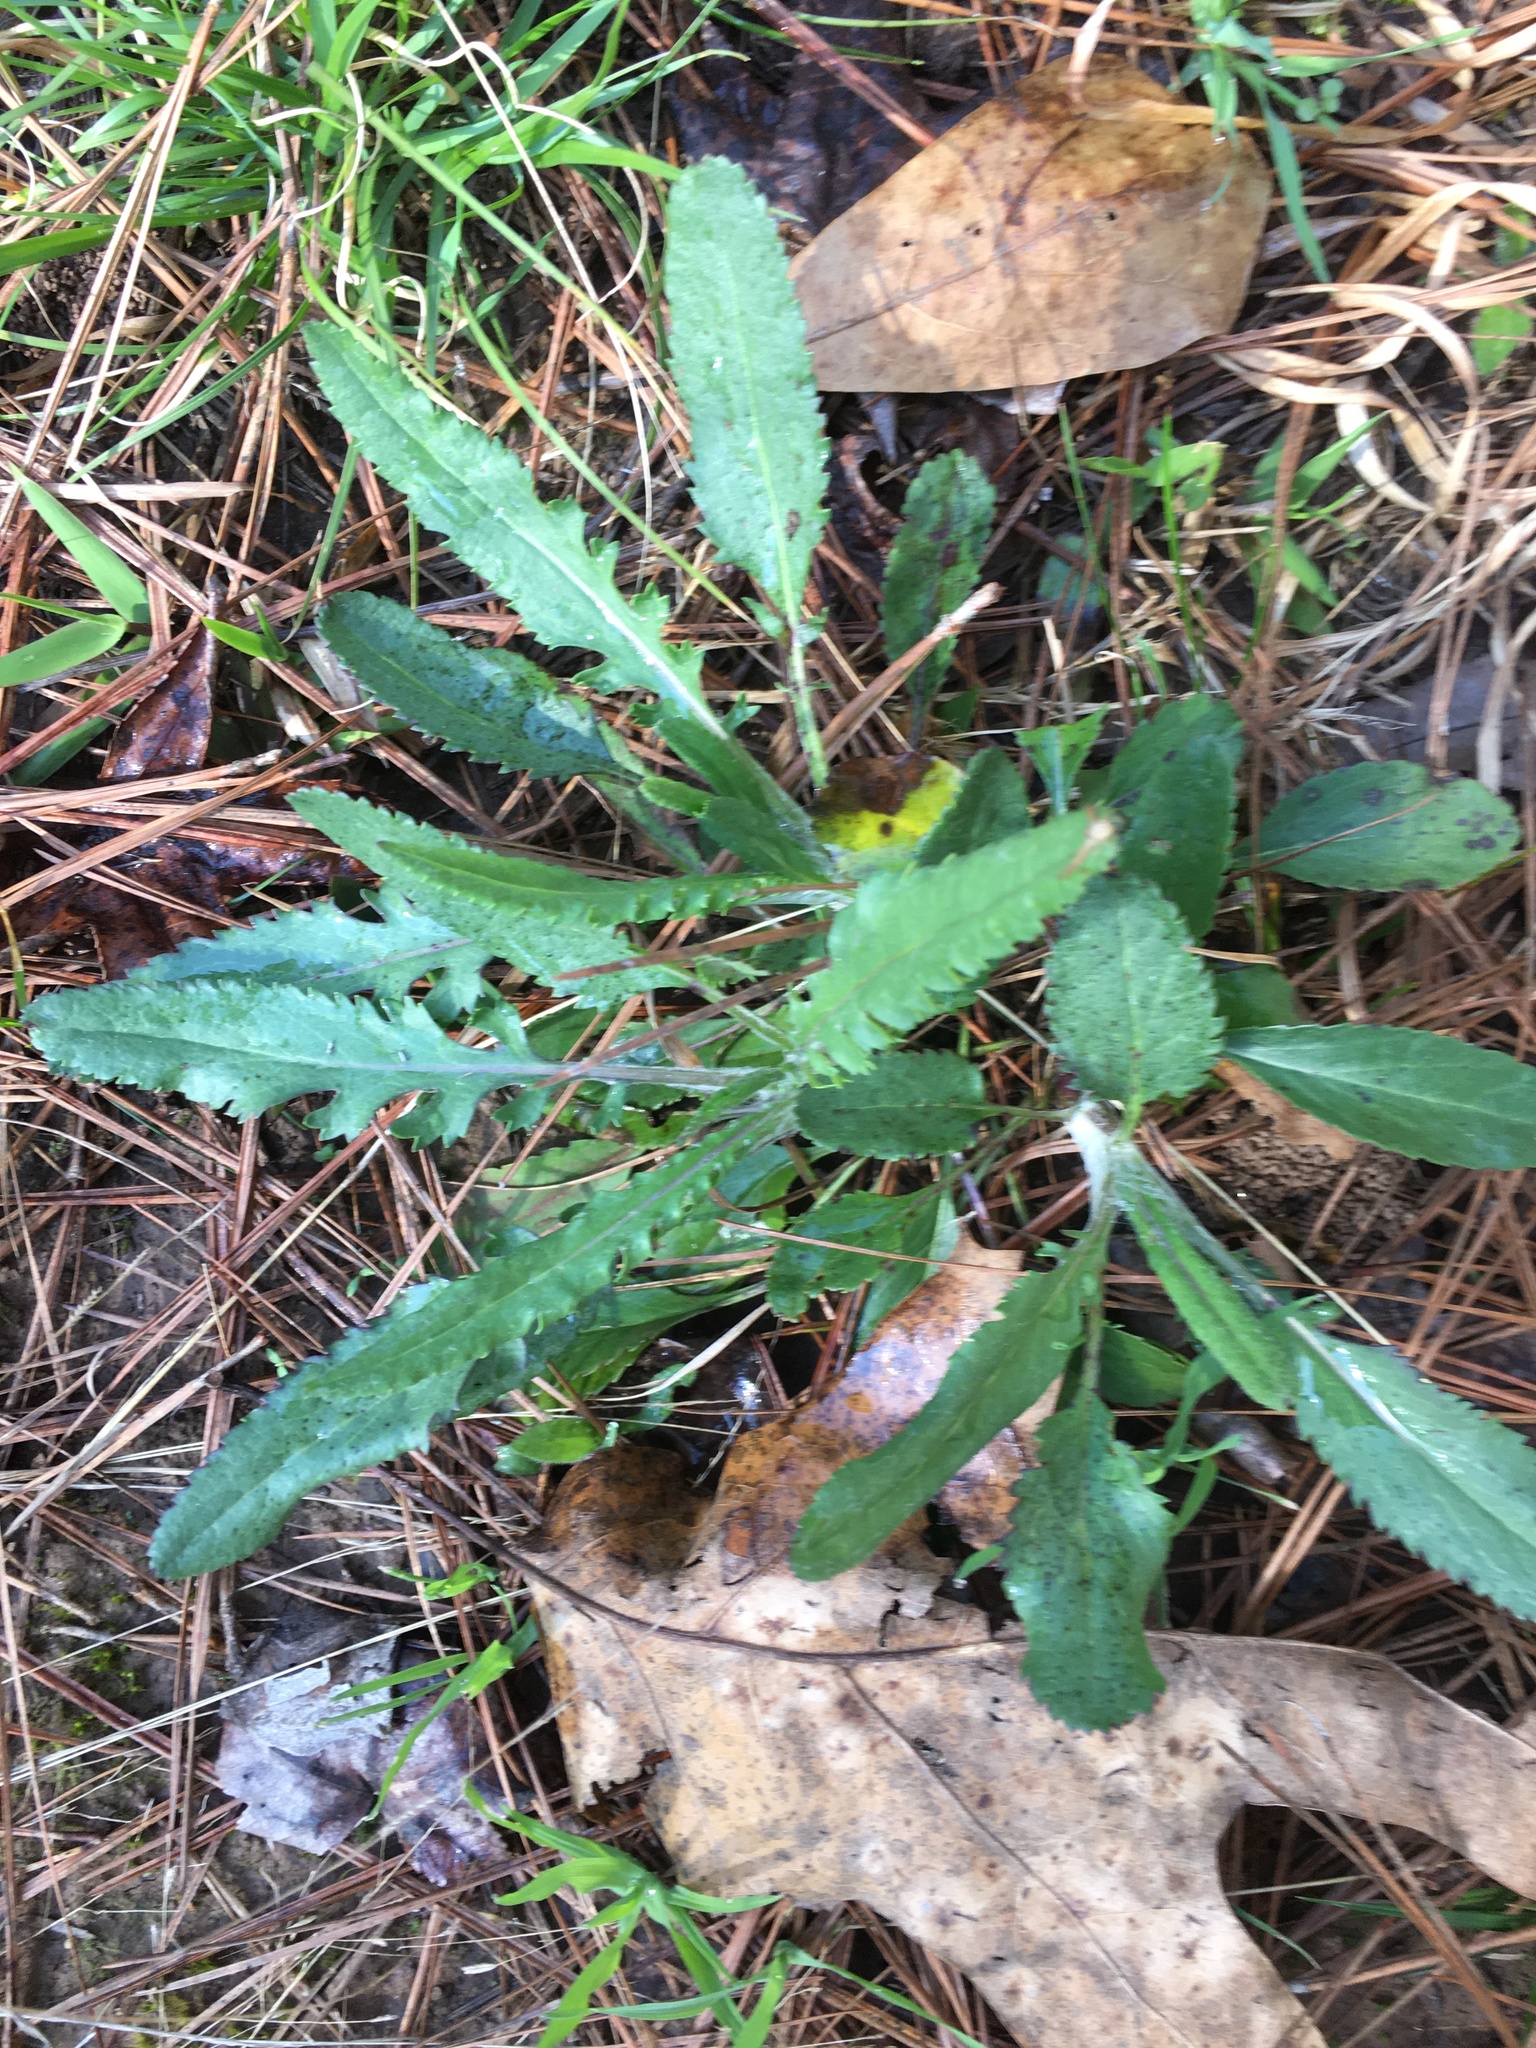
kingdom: Plantae
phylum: Tracheophyta
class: Magnoliopsida
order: Asterales
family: Asteraceae
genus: Packera
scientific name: Packera anonyma
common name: Small ragwort
